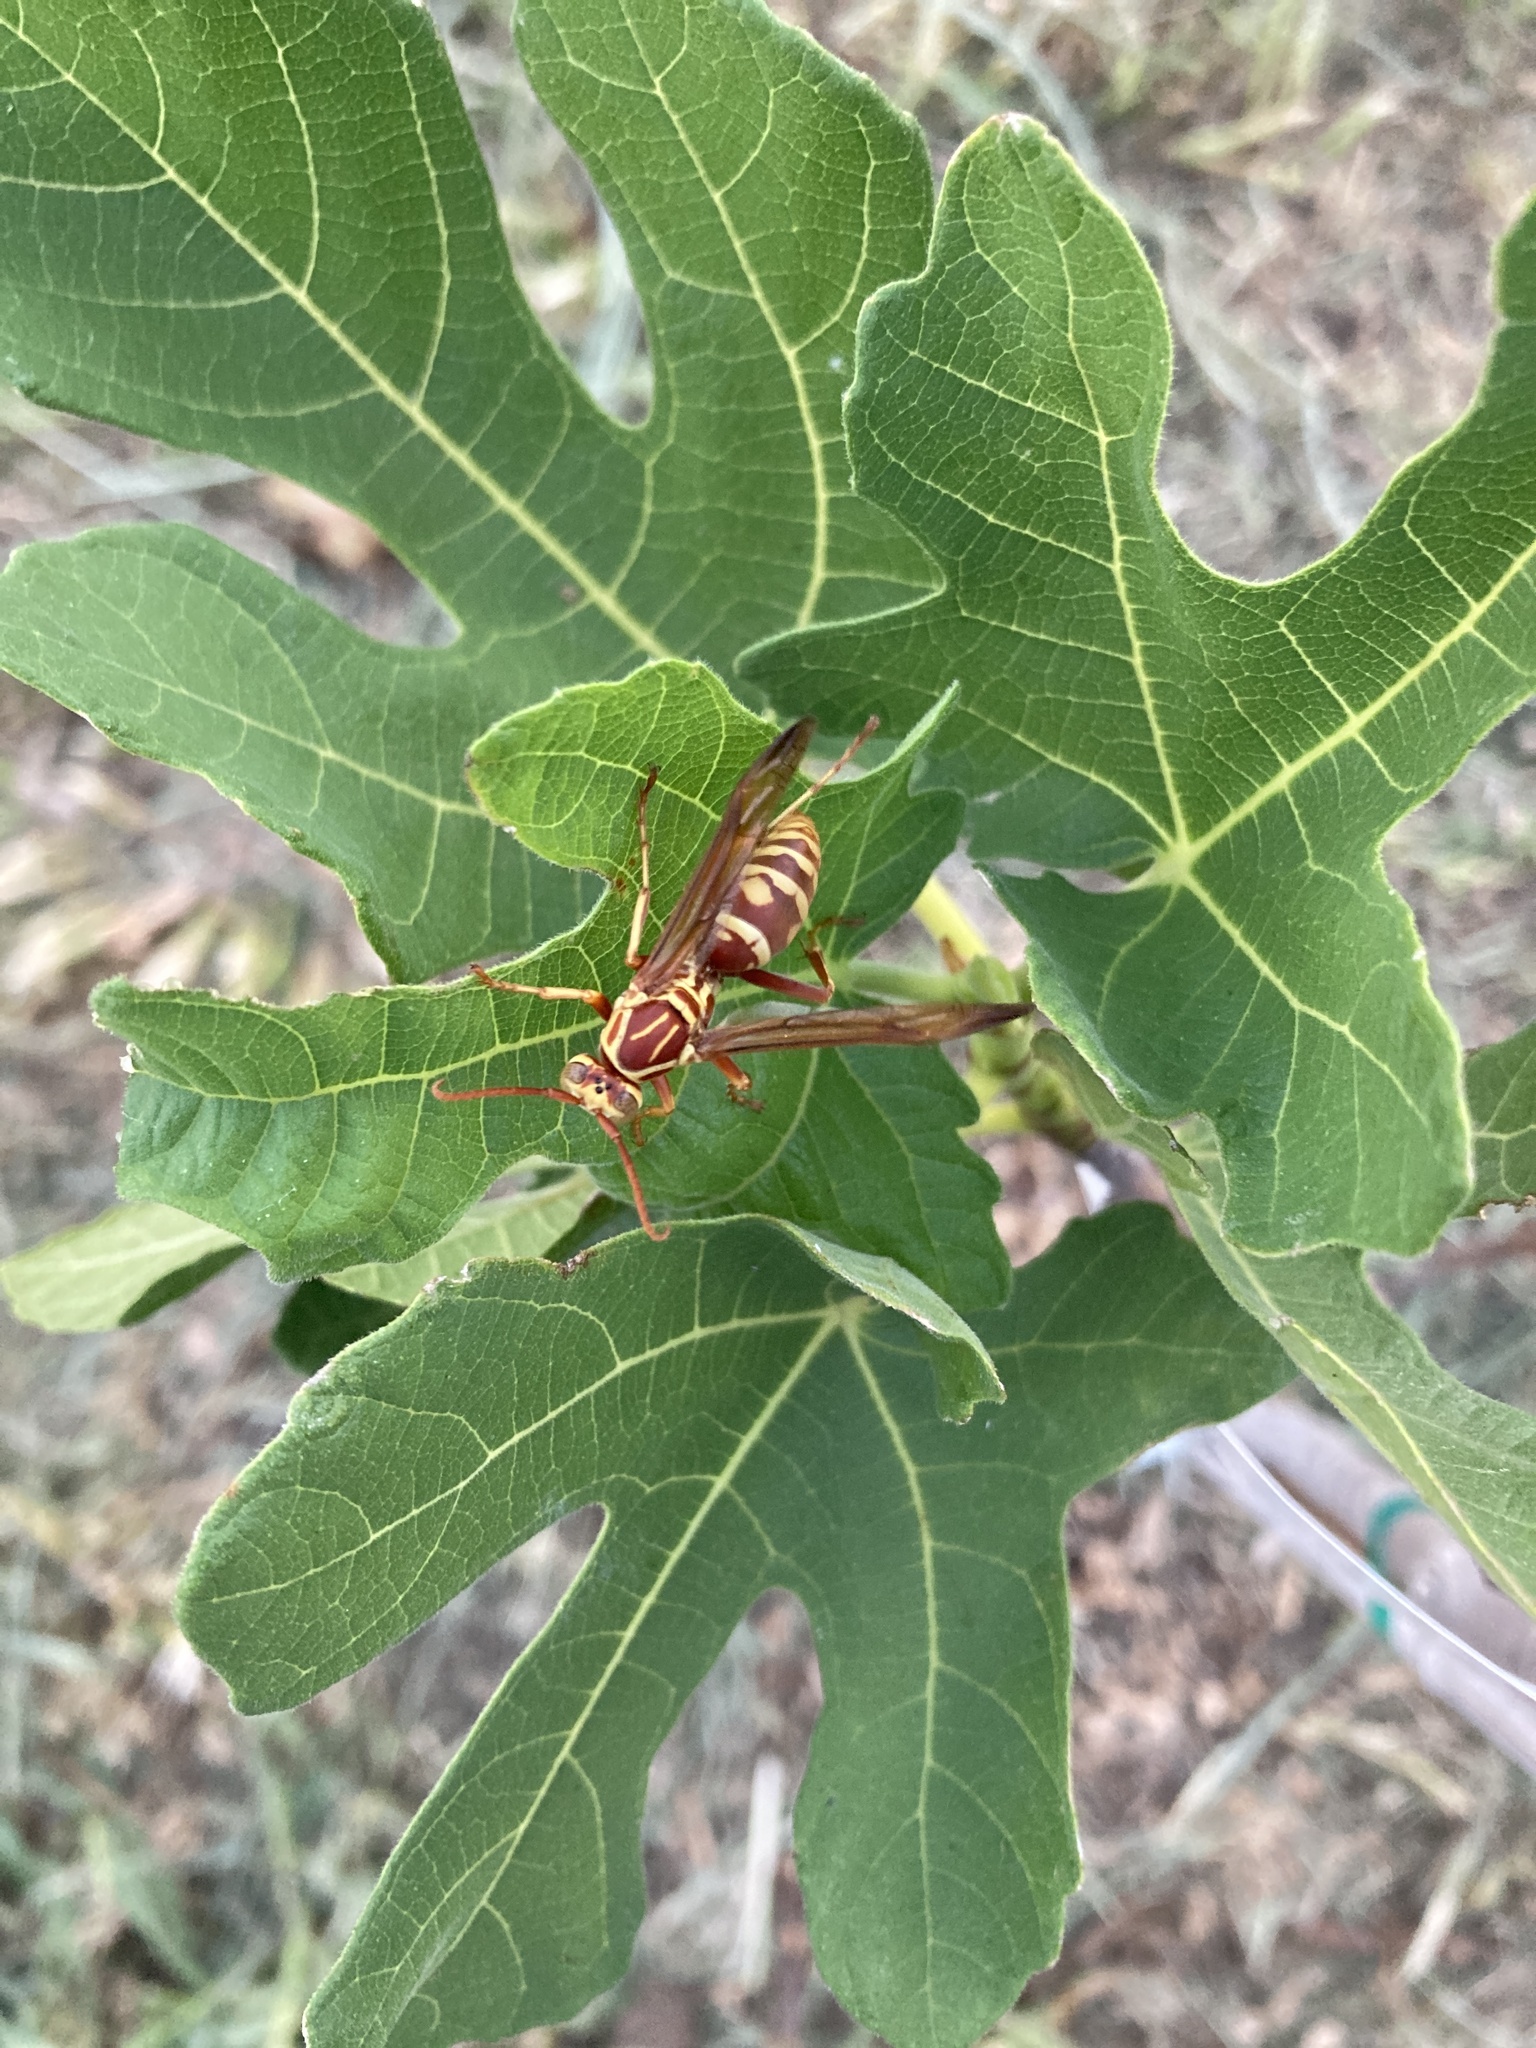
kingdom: Animalia
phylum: Arthropoda
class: Insecta
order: Hymenoptera
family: Eumenidae
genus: Polistes
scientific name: Polistes apachus
